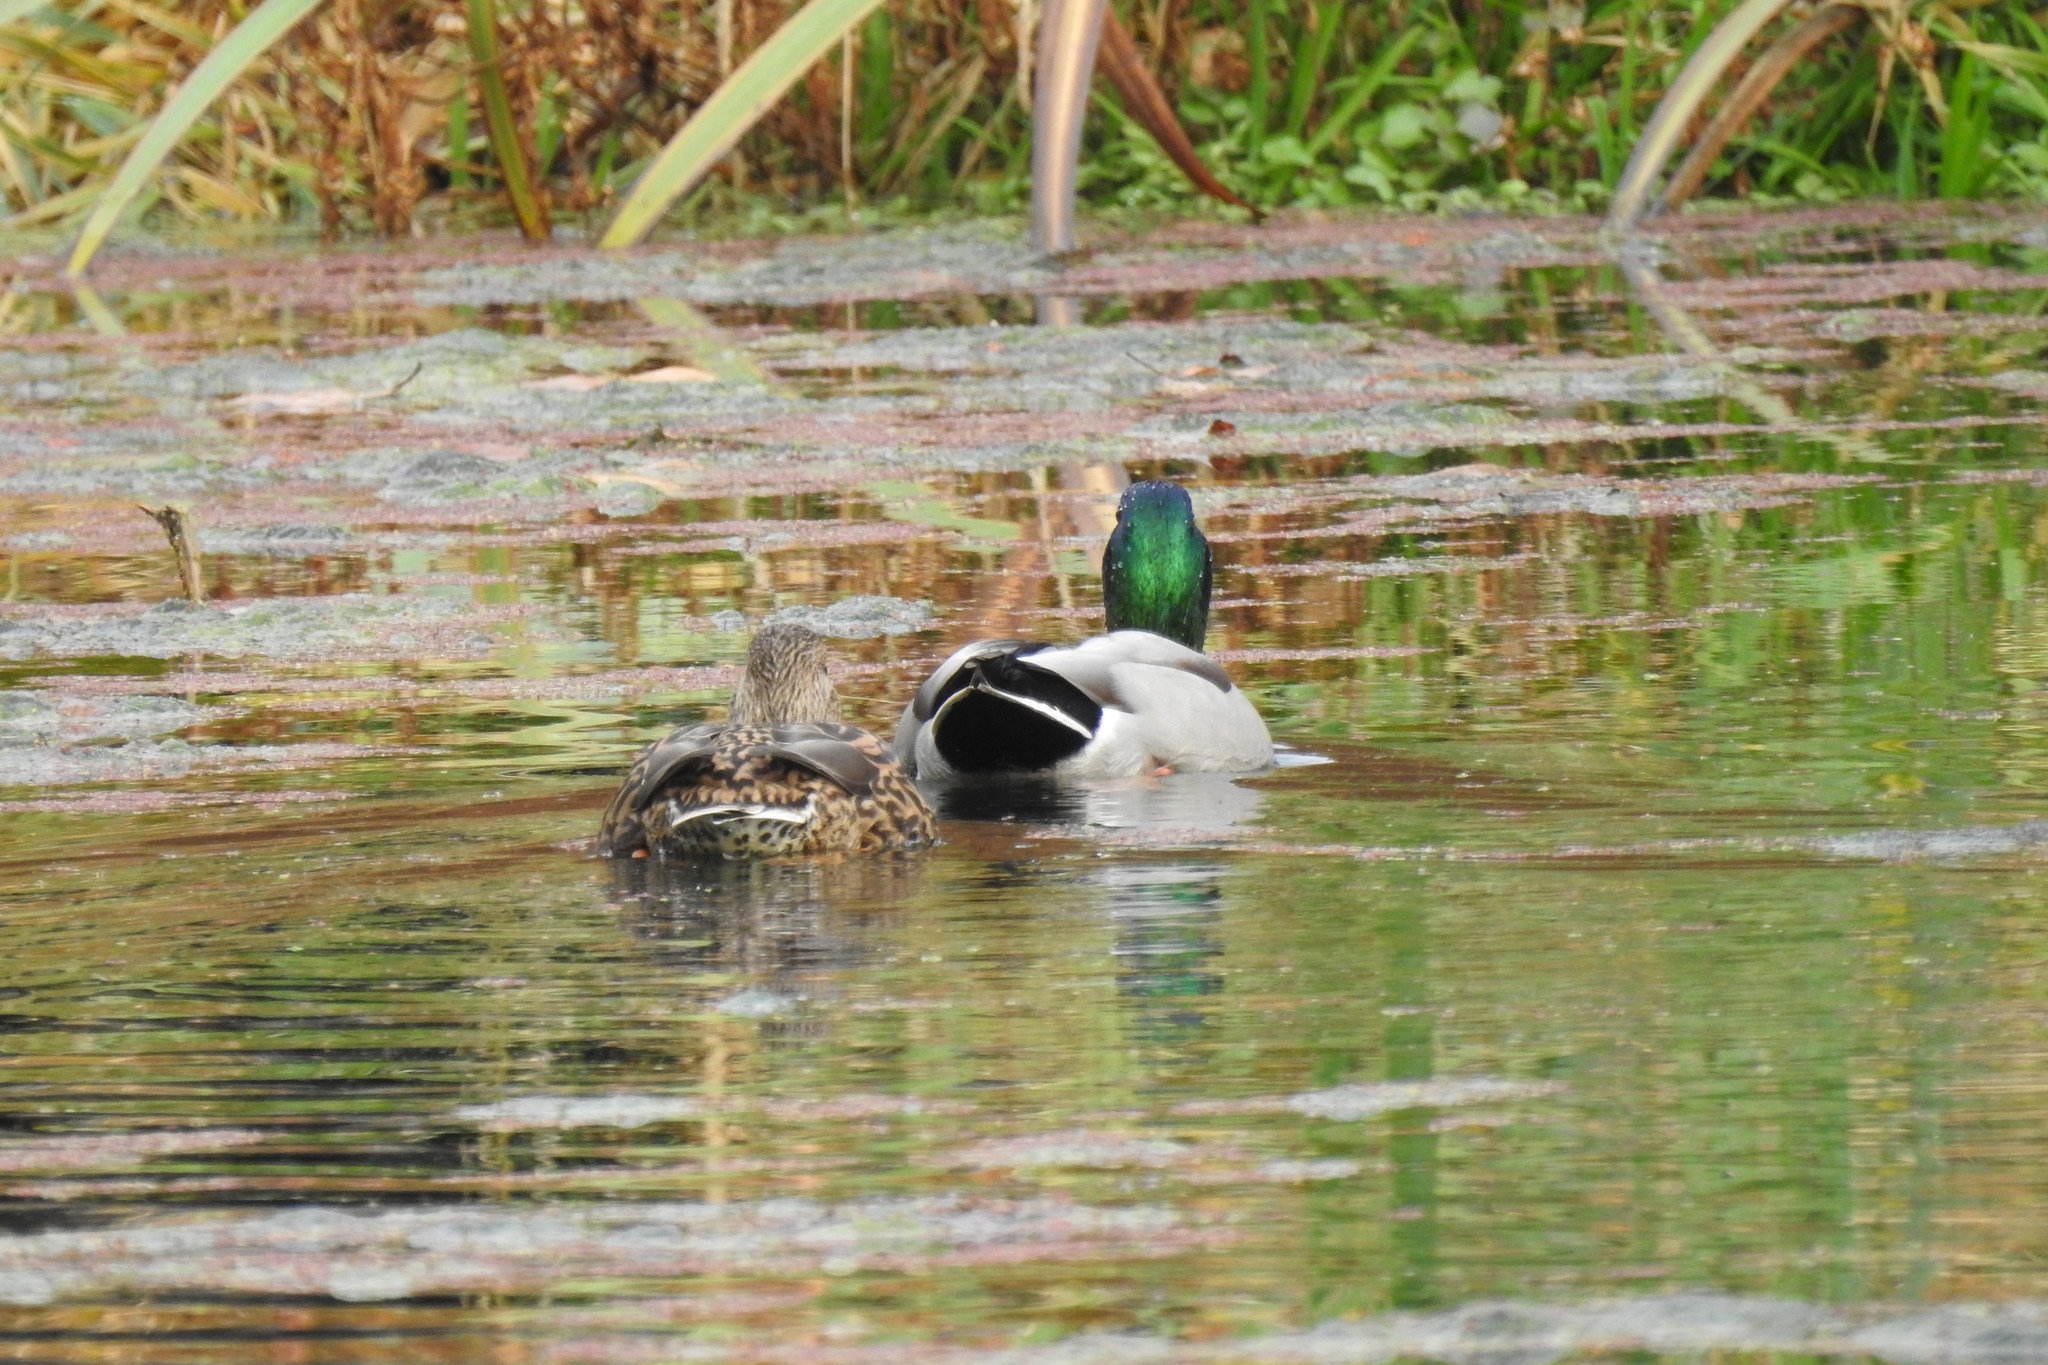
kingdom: Animalia
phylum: Chordata
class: Aves
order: Anseriformes
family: Anatidae
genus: Anas
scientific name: Anas platyrhynchos
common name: Mallard
